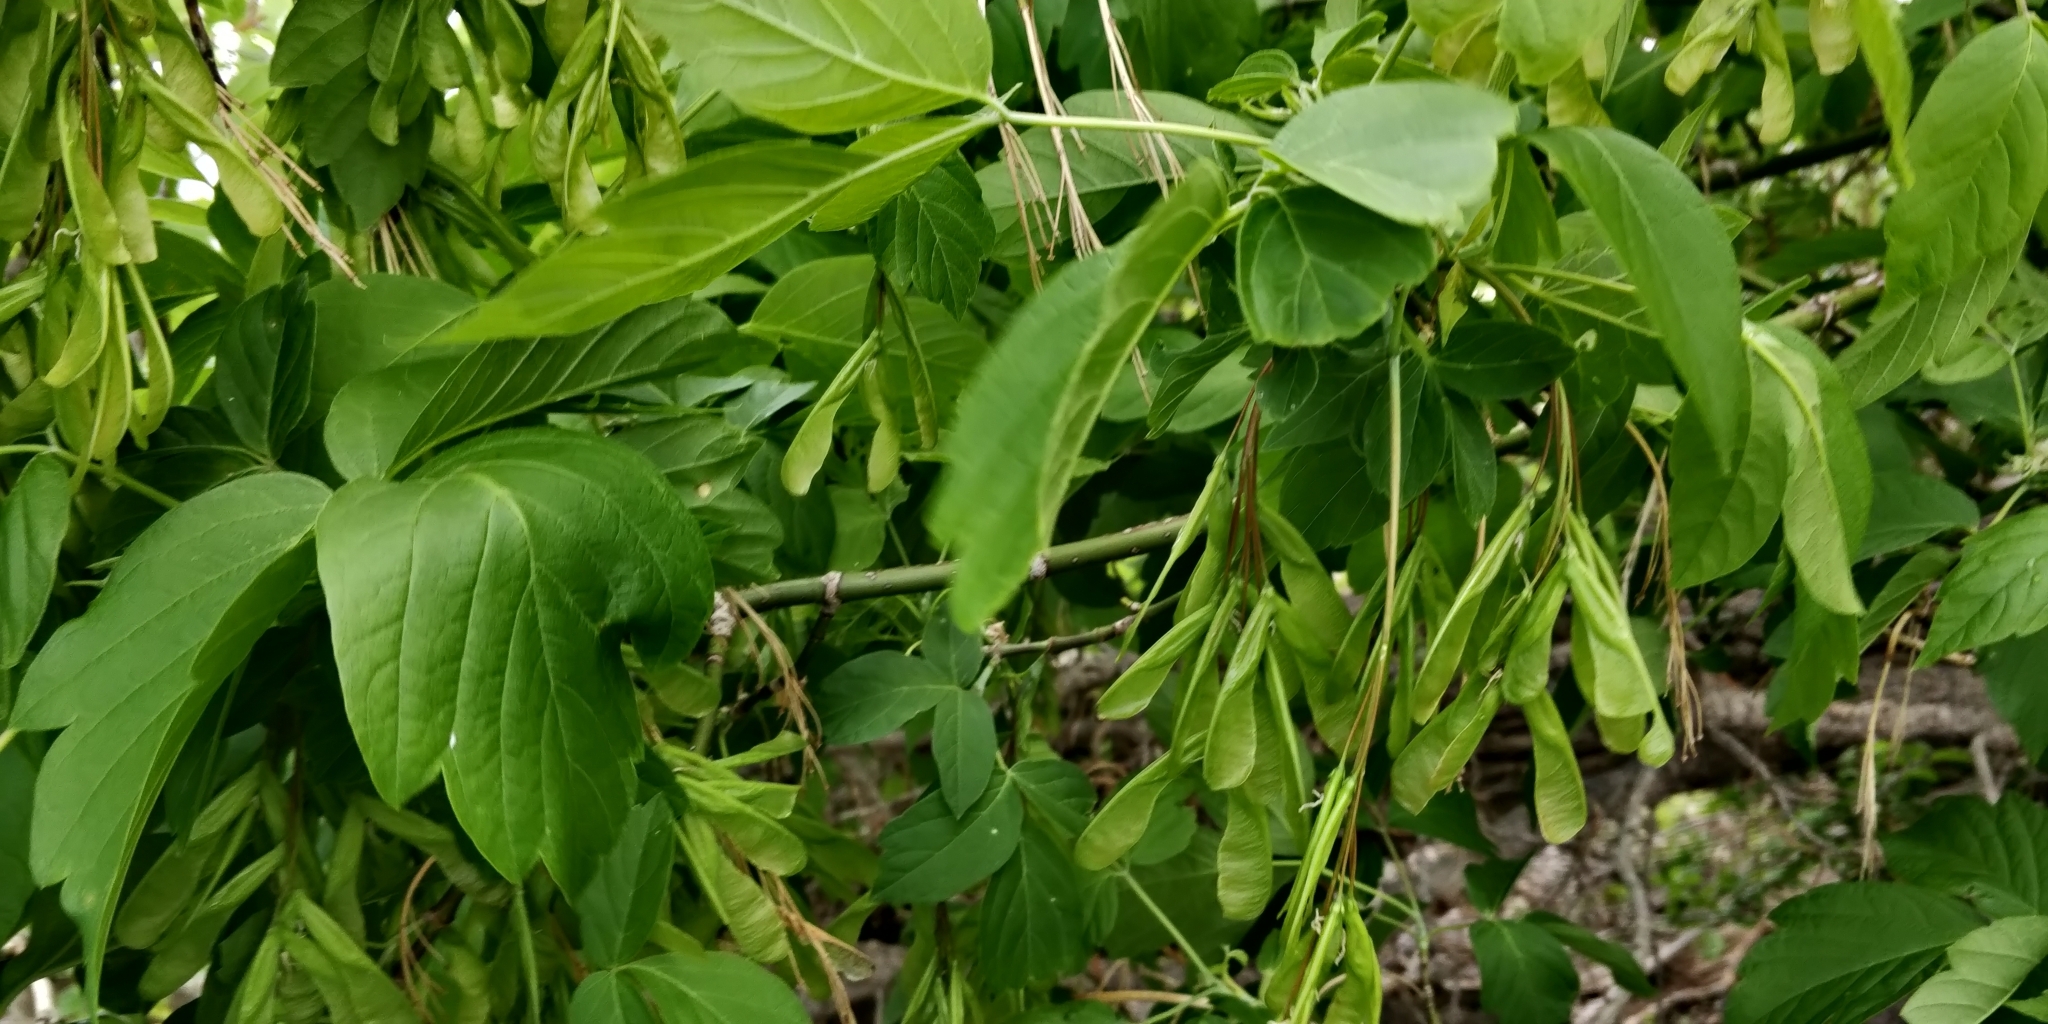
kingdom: Plantae
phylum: Tracheophyta
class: Magnoliopsida
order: Sapindales
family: Sapindaceae
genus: Acer
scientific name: Acer negundo
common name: Ashleaf maple
